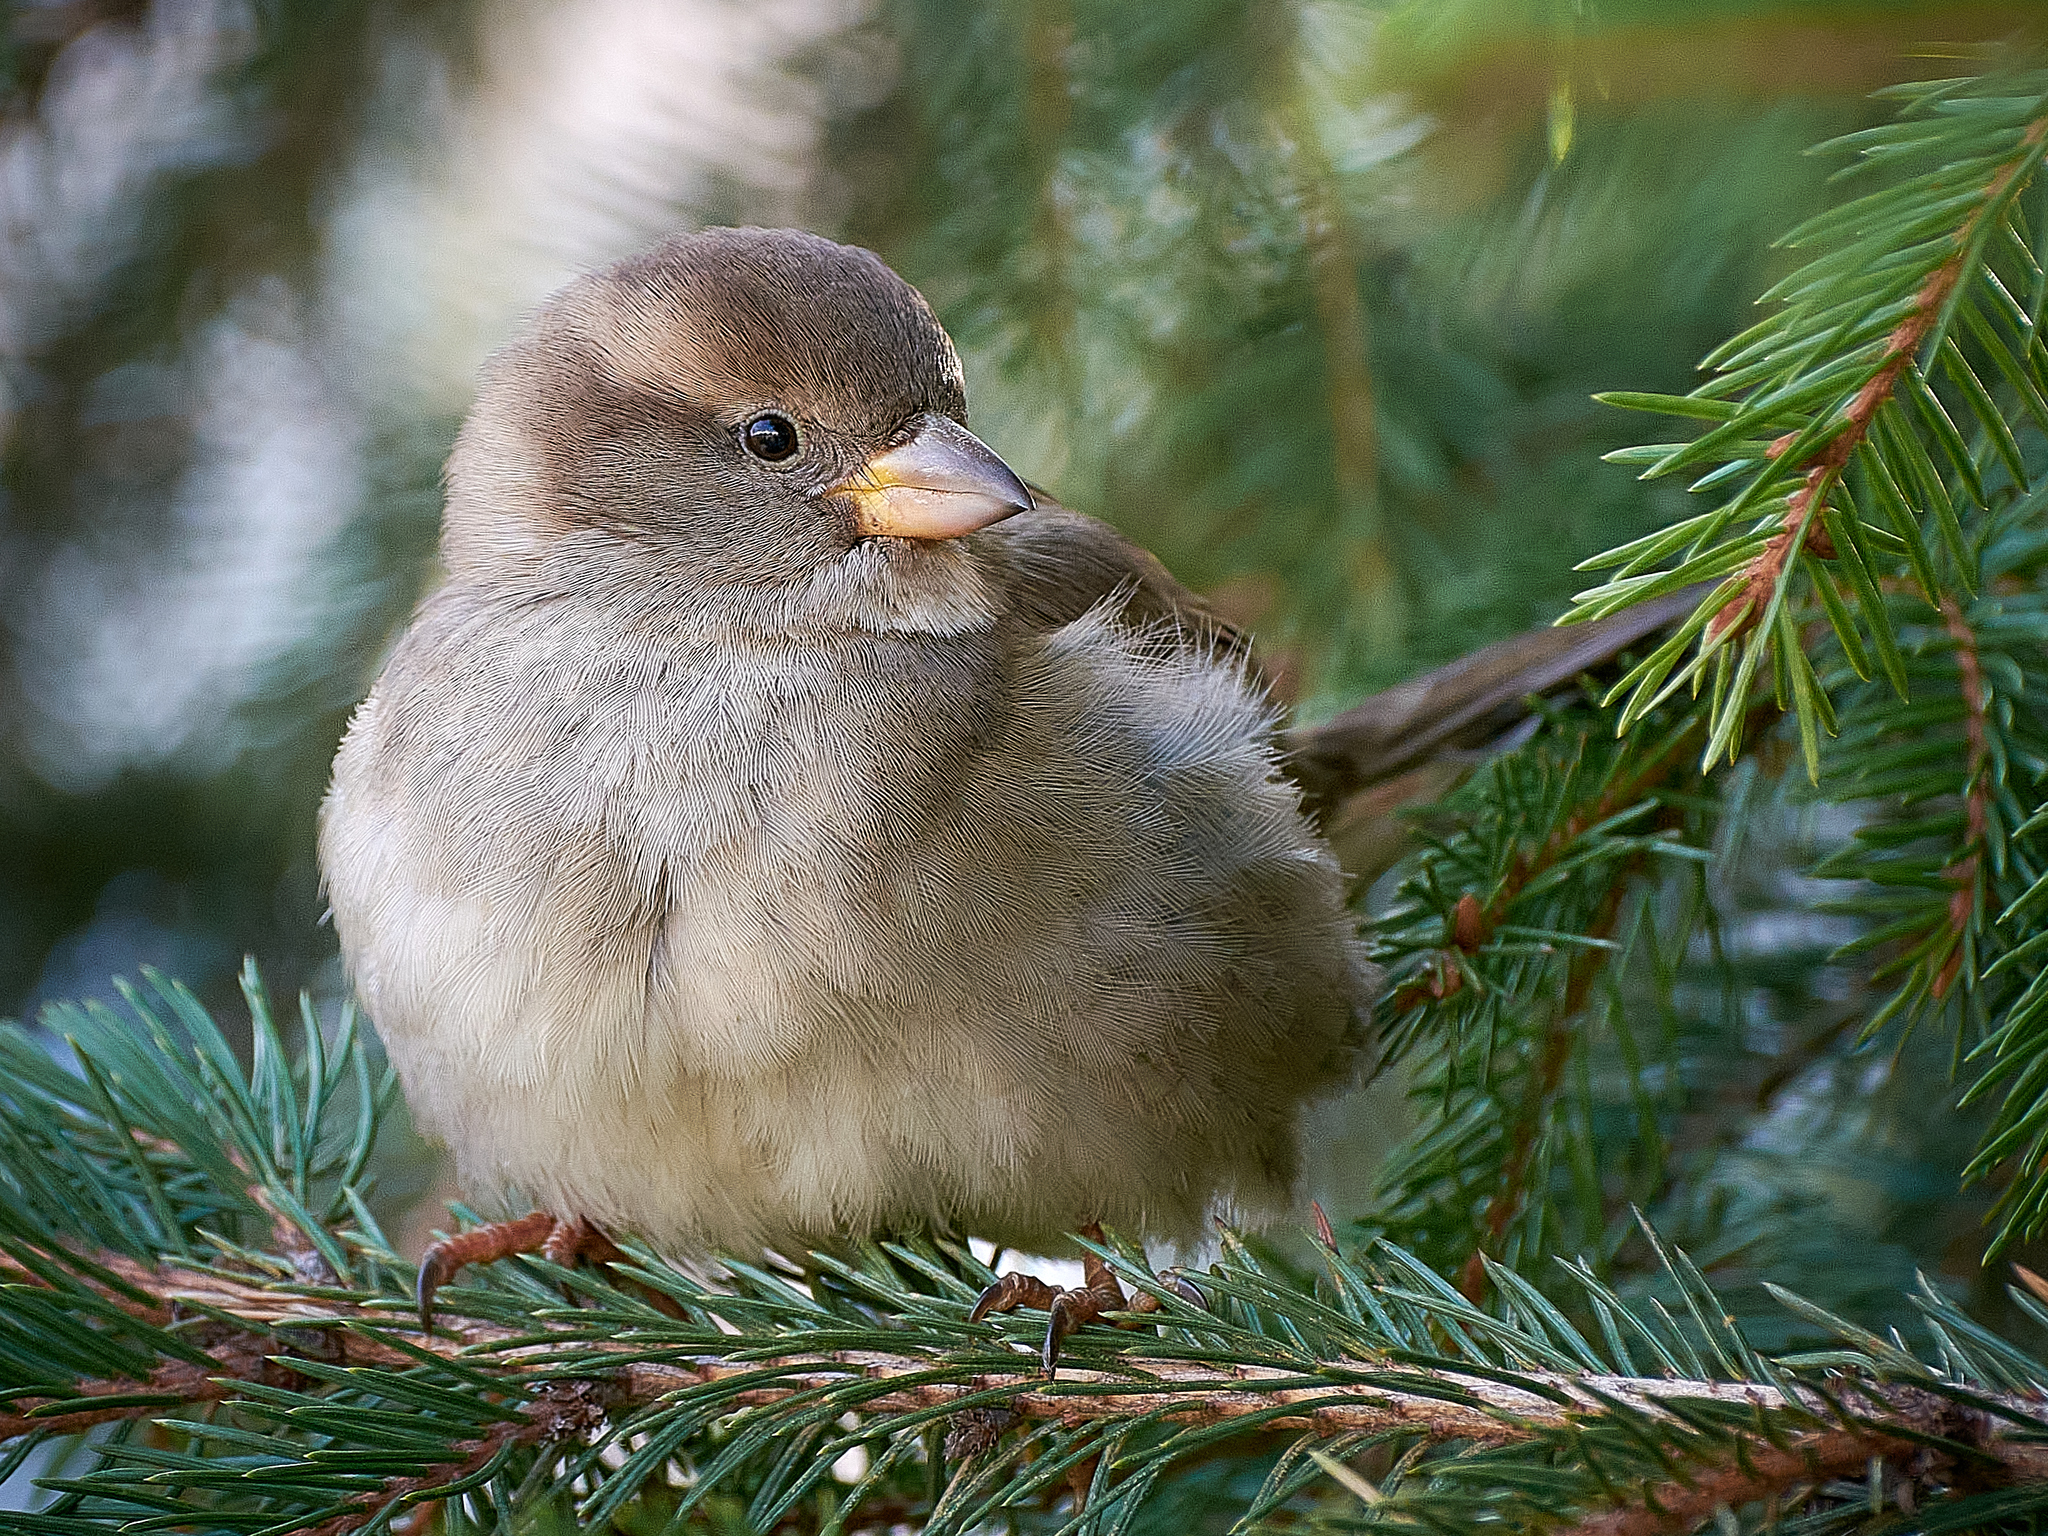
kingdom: Animalia
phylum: Chordata
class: Aves
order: Passeriformes
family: Passeridae
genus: Passer
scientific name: Passer domesticus
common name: House sparrow
